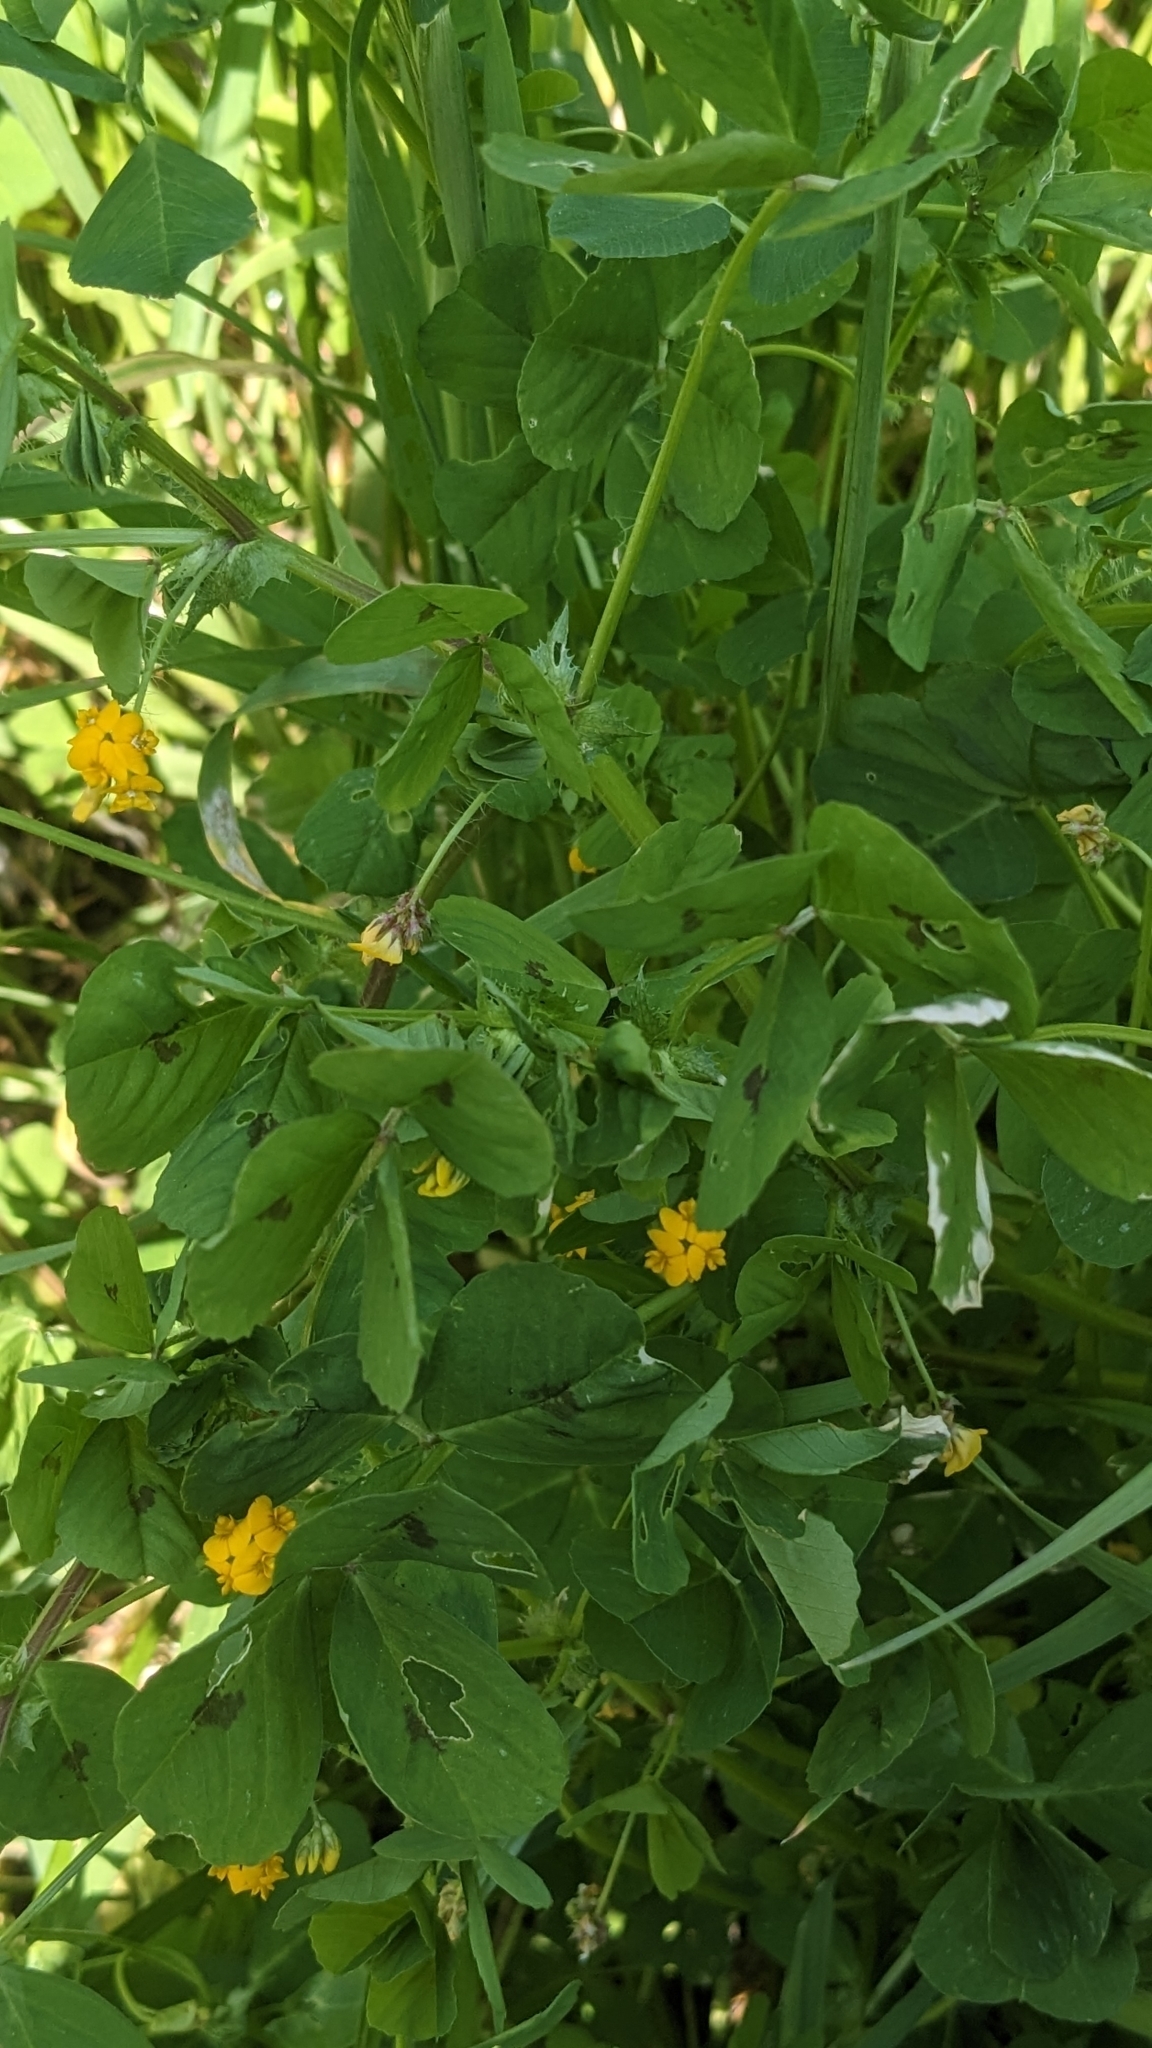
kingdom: Plantae
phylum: Tracheophyta
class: Magnoliopsida
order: Fabales
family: Fabaceae
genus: Medicago
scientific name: Medicago arabica
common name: Spotted medick
